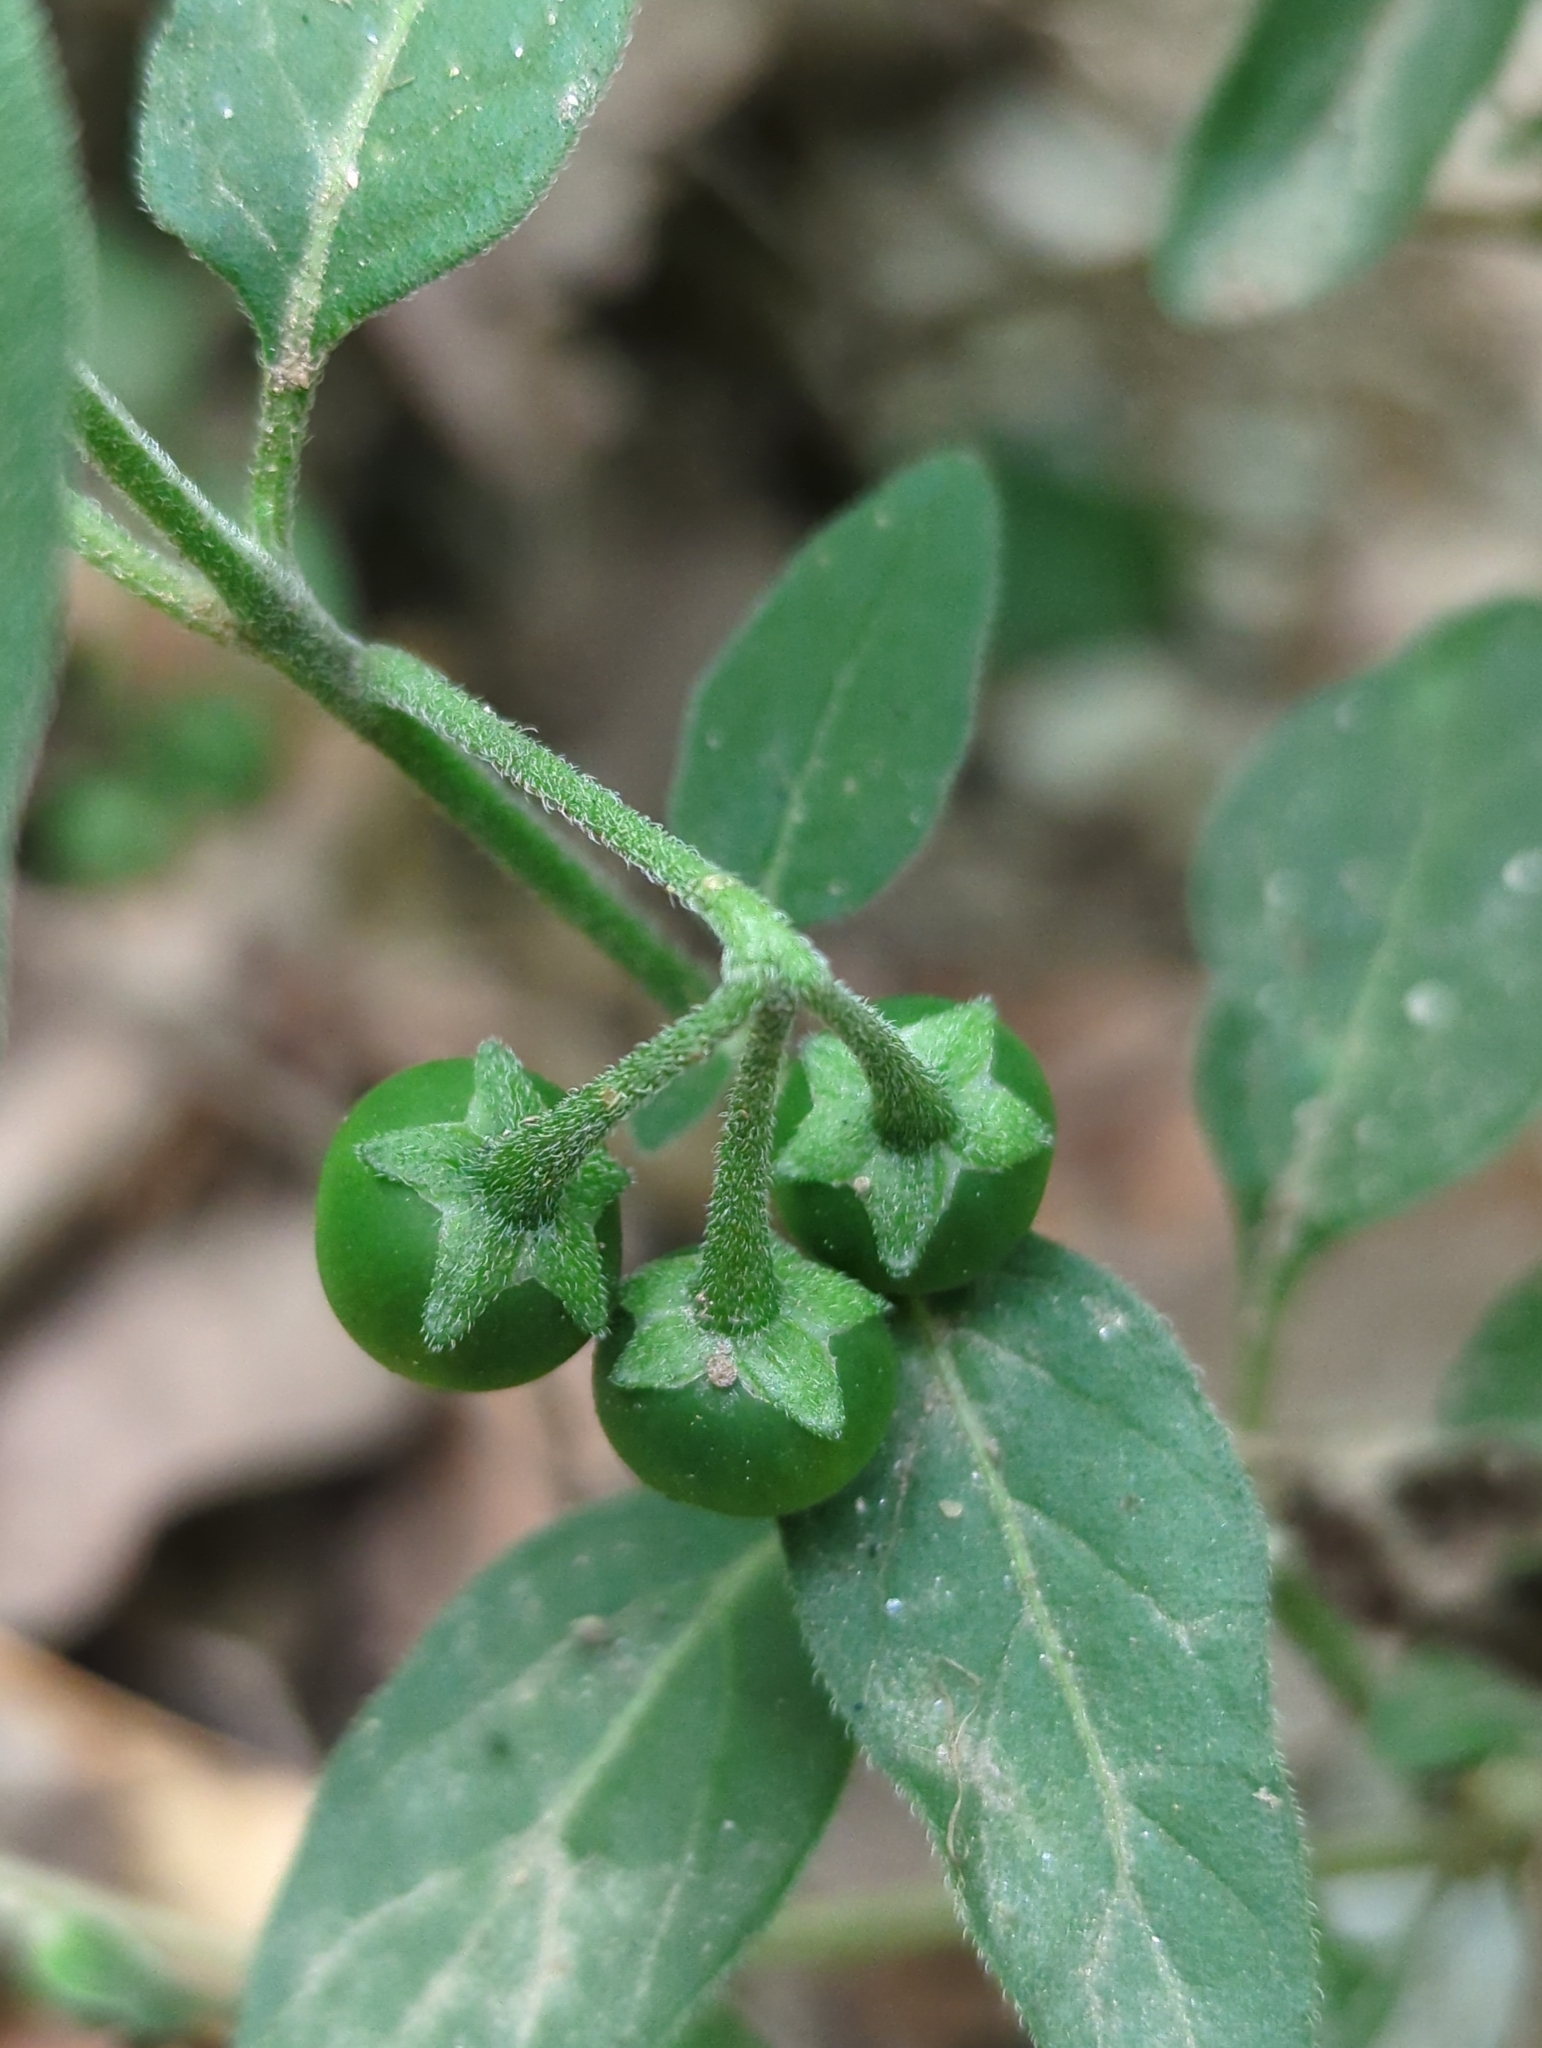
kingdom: Plantae
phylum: Tracheophyta
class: Magnoliopsida
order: Solanales
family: Solanaceae
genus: Solanum
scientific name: Solanum chenopodioides
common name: Tall nightshade
